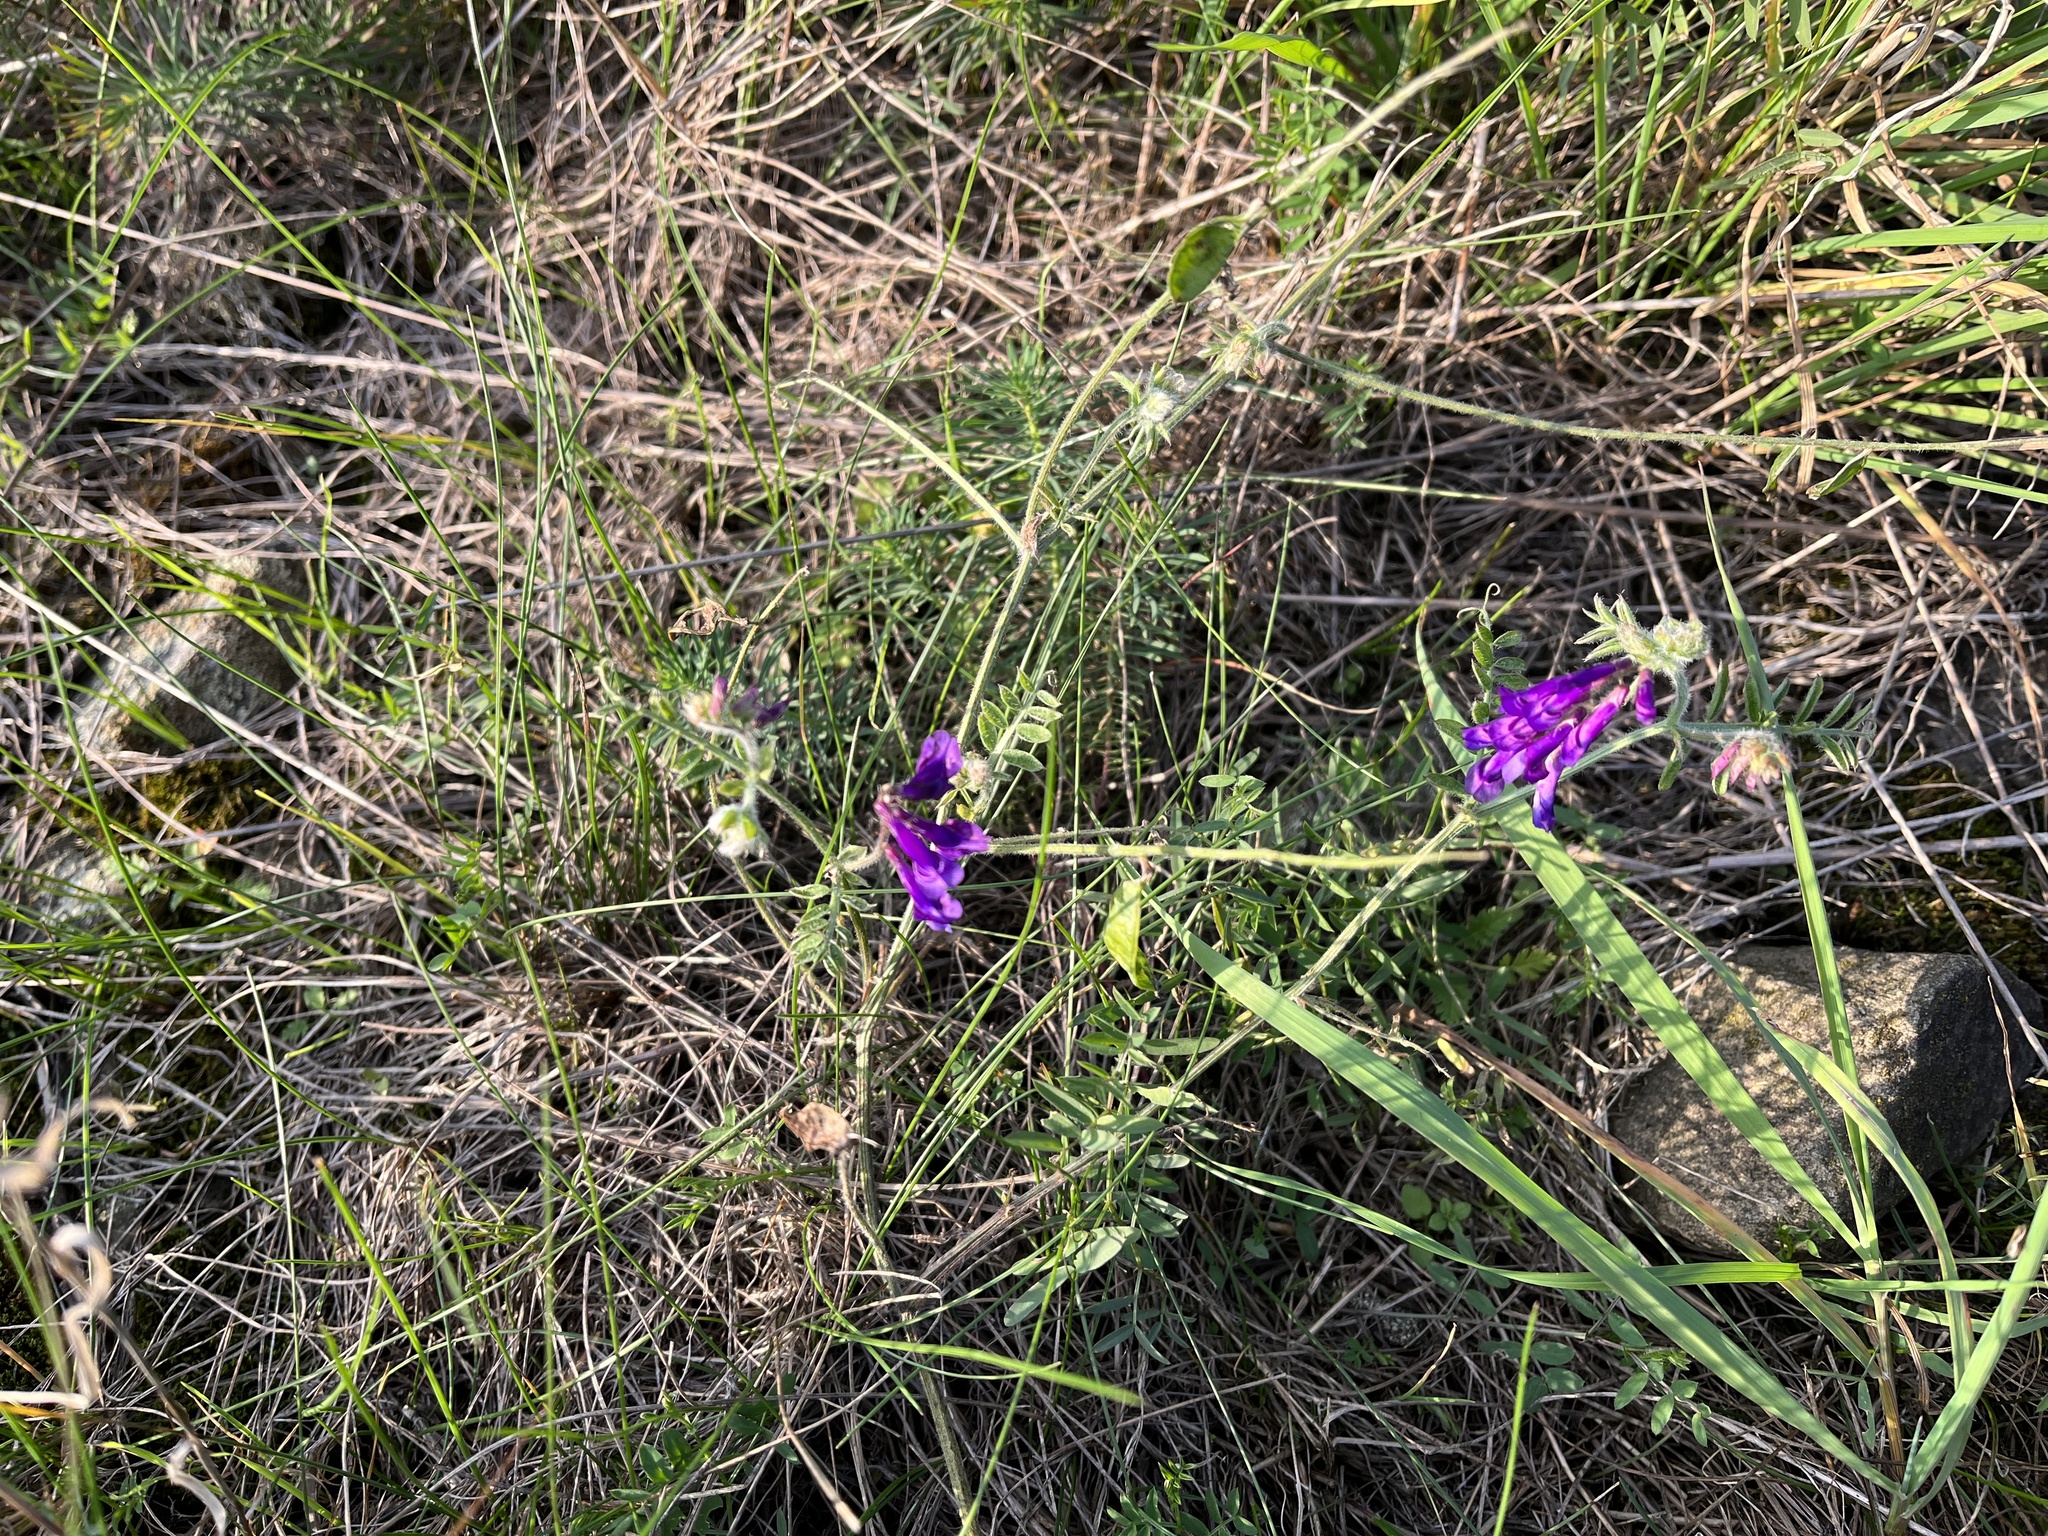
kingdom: Plantae
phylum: Tracheophyta
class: Magnoliopsida
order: Fabales
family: Fabaceae
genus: Vicia
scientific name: Vicia villosa
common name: Fodder vetch
